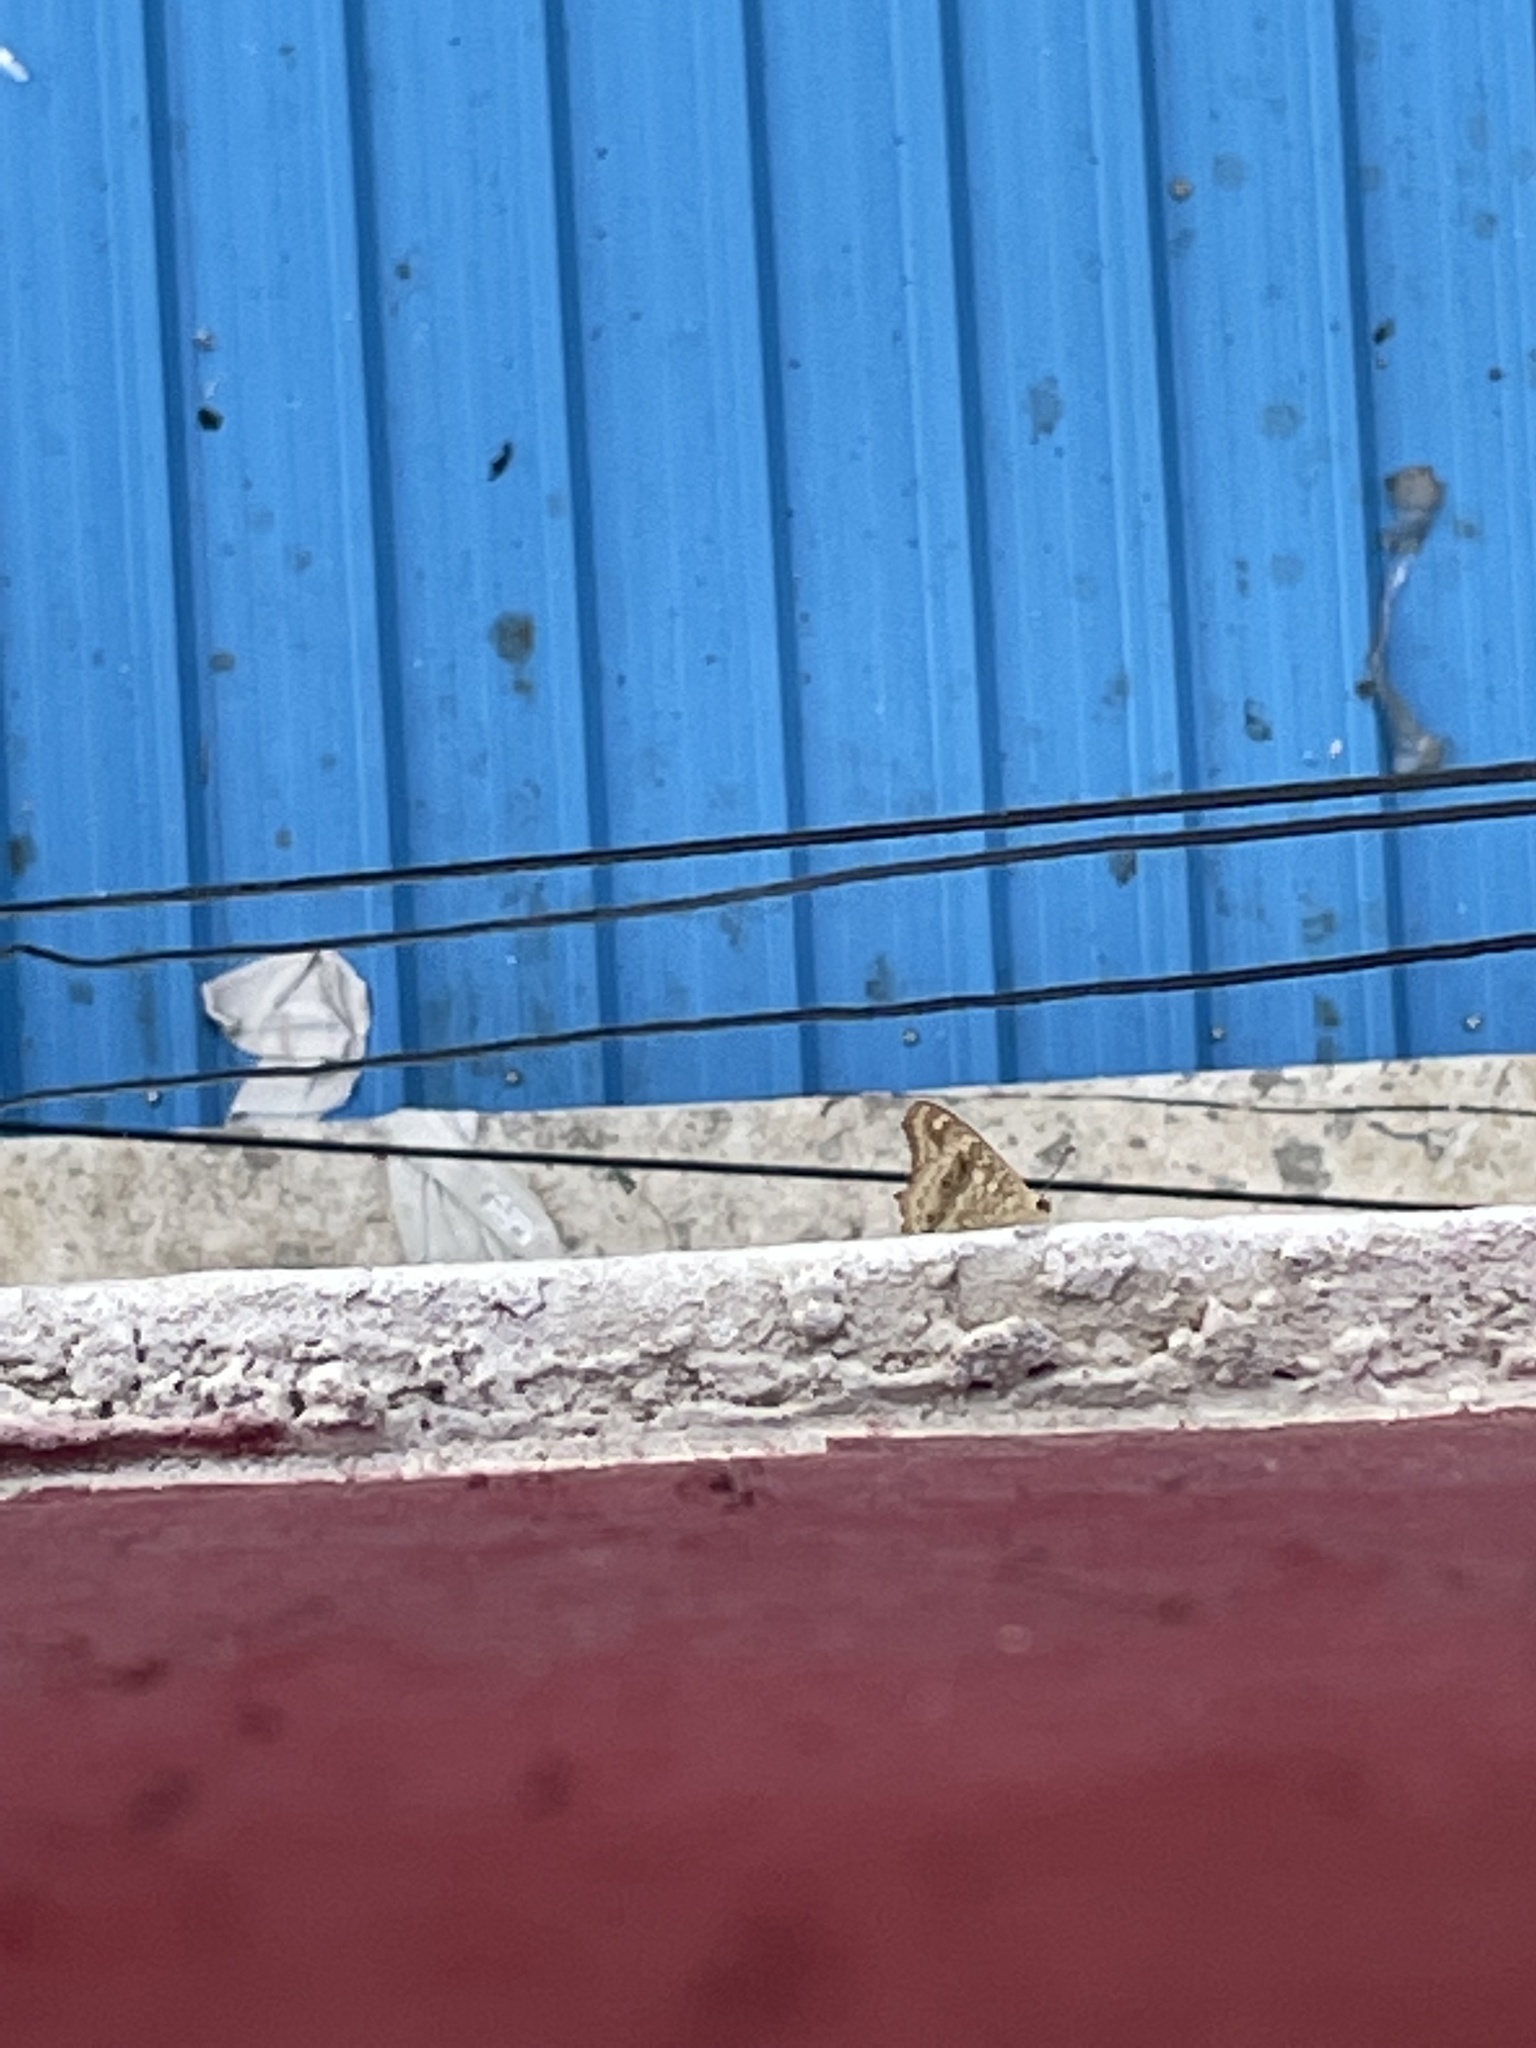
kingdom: Animalia
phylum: Arthropoda
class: Insecta
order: Lepidoptera
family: Nymphalidae
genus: Junonia
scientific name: Junonia lemonias
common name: Lemon pansy
